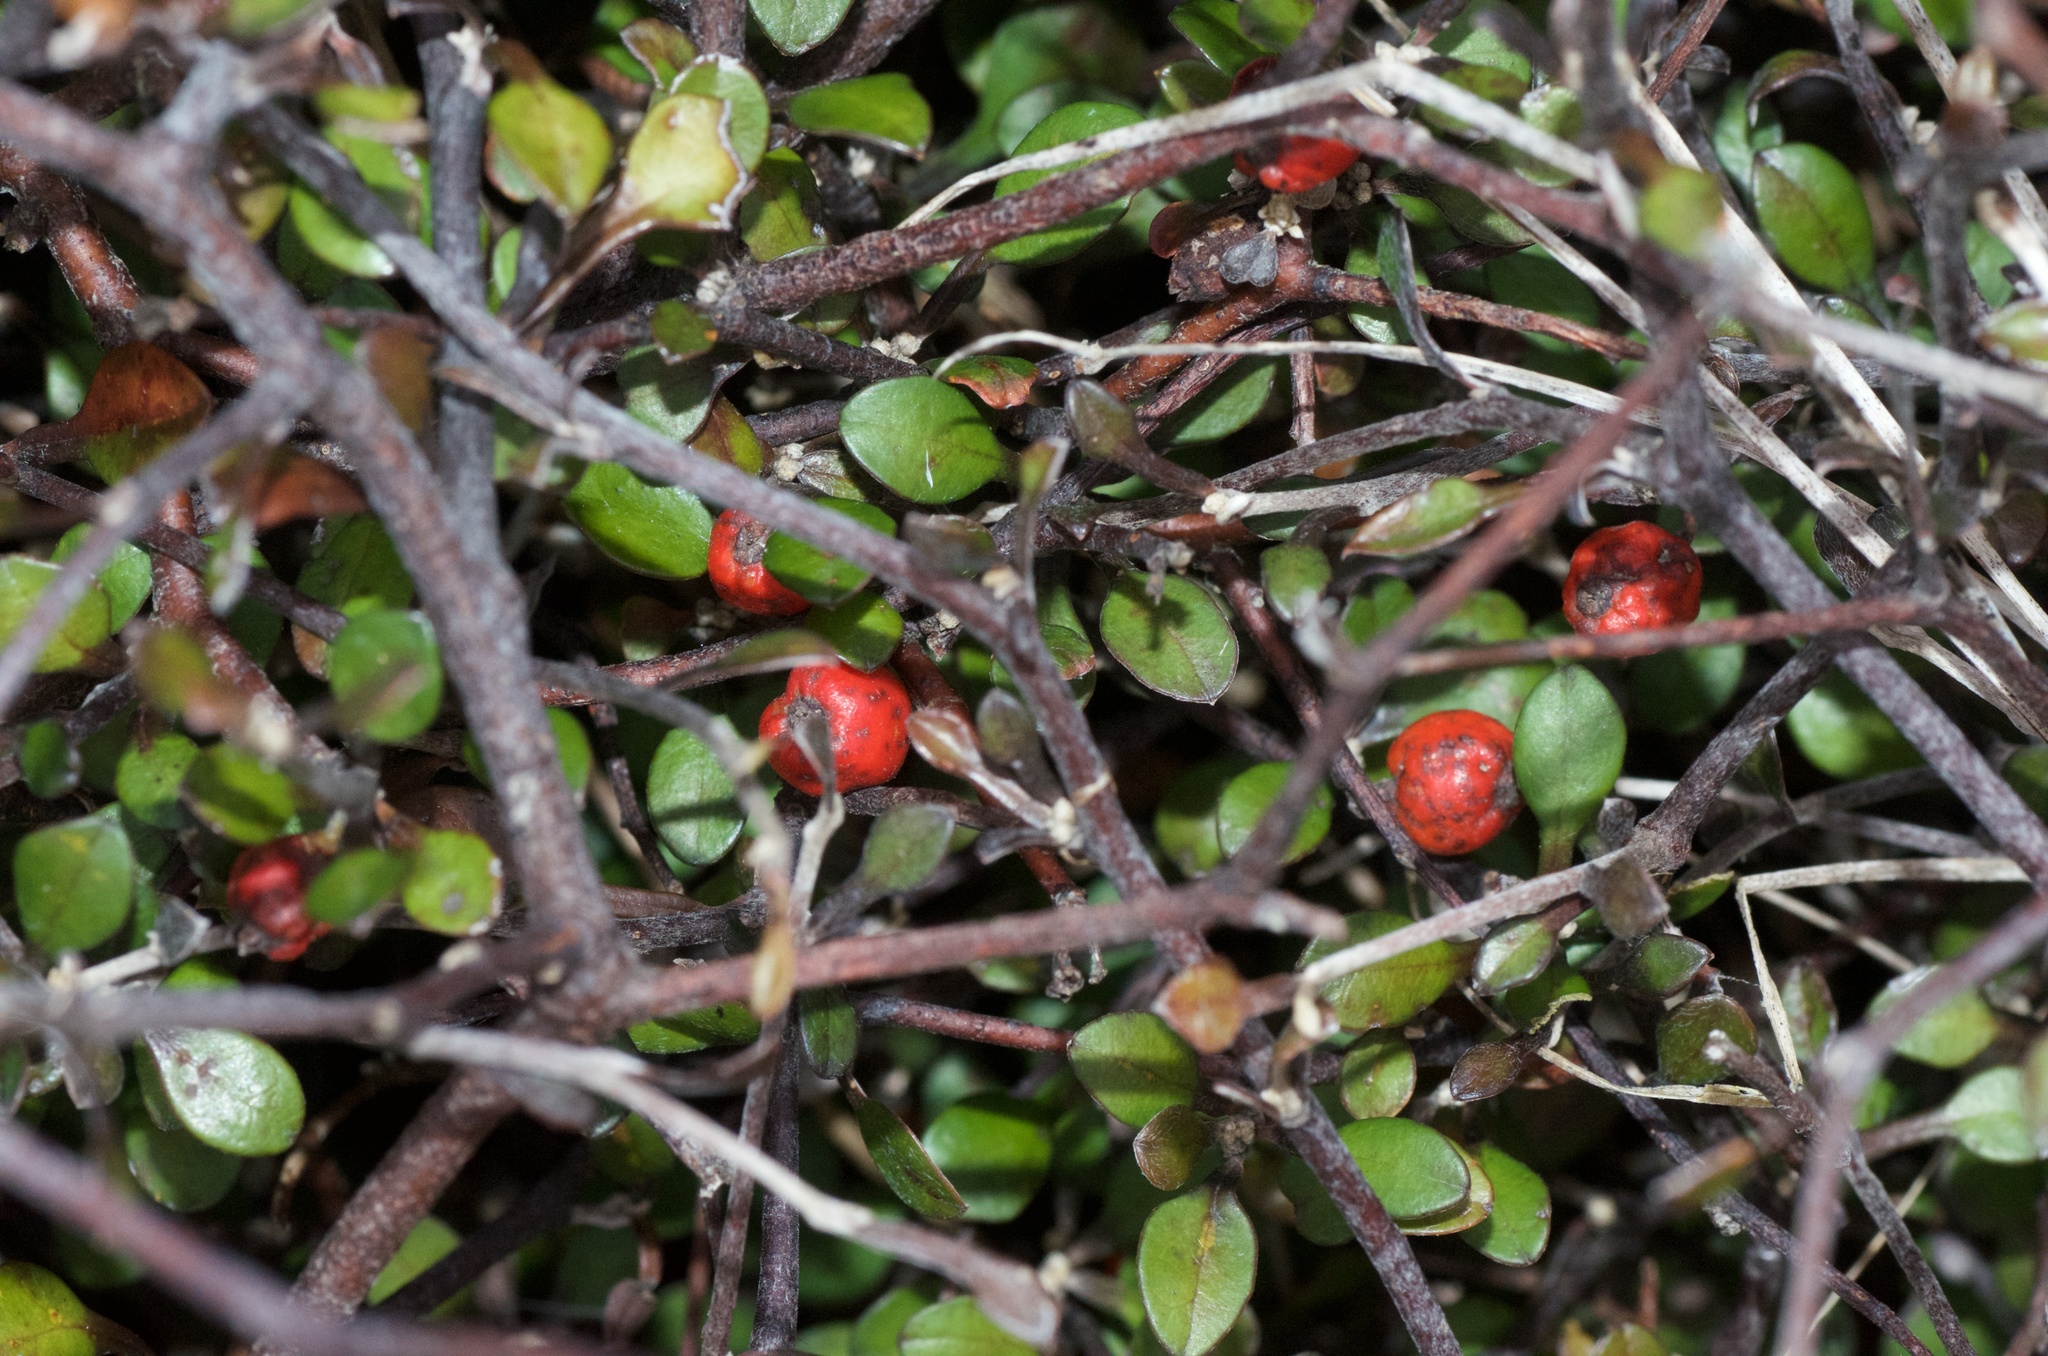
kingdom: Plantae
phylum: Tracheophyta
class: Magnoliopsida
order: Asterales
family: Argophyllaceae
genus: Corokia
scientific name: Corokia cotoneaster
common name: Wire nettingbush
